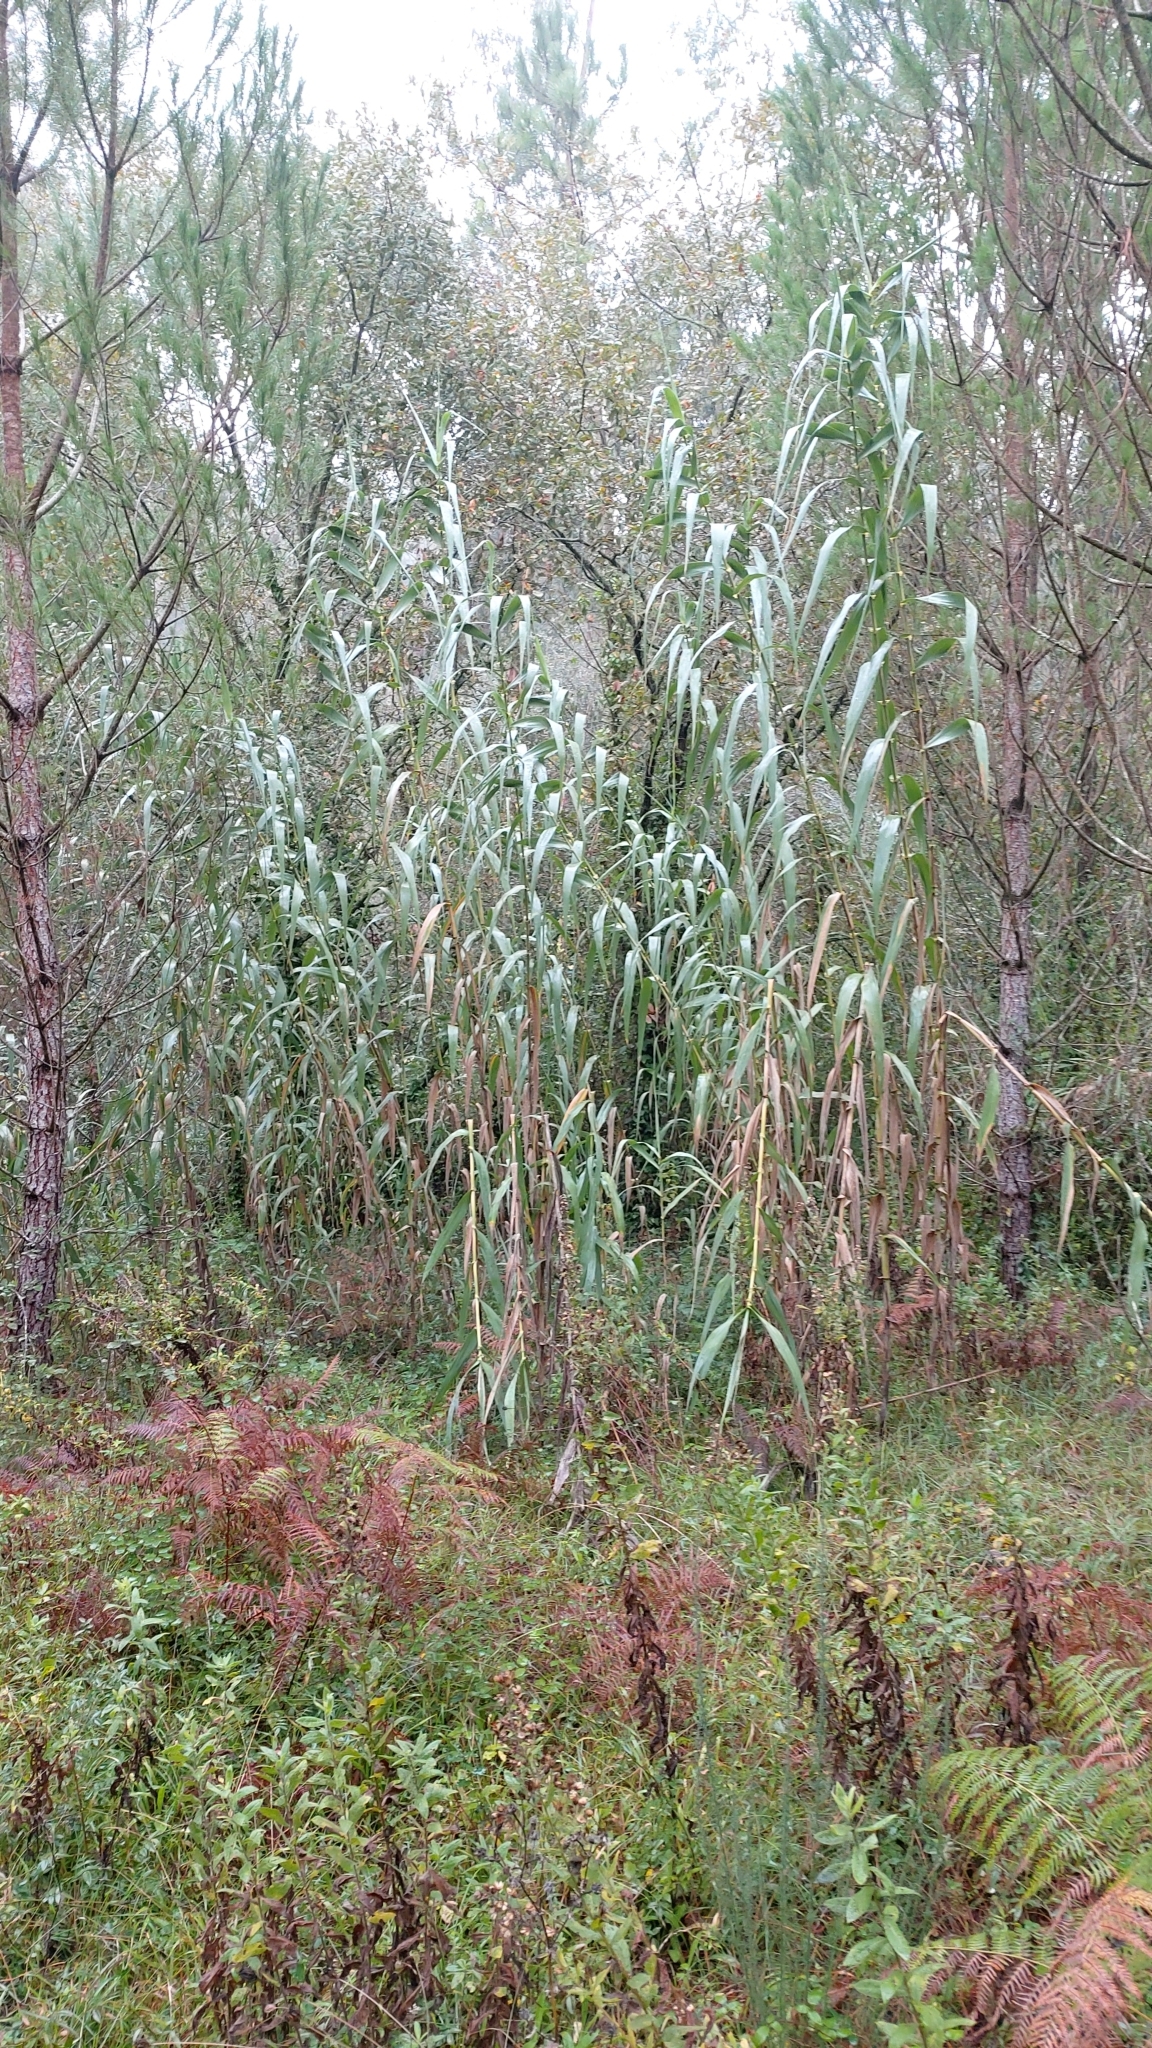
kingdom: Plantae
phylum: Tracheophyta
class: Liliopsida
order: Poales
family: Poaceae
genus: Arundo
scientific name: Arundo donax
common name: Giant reed
